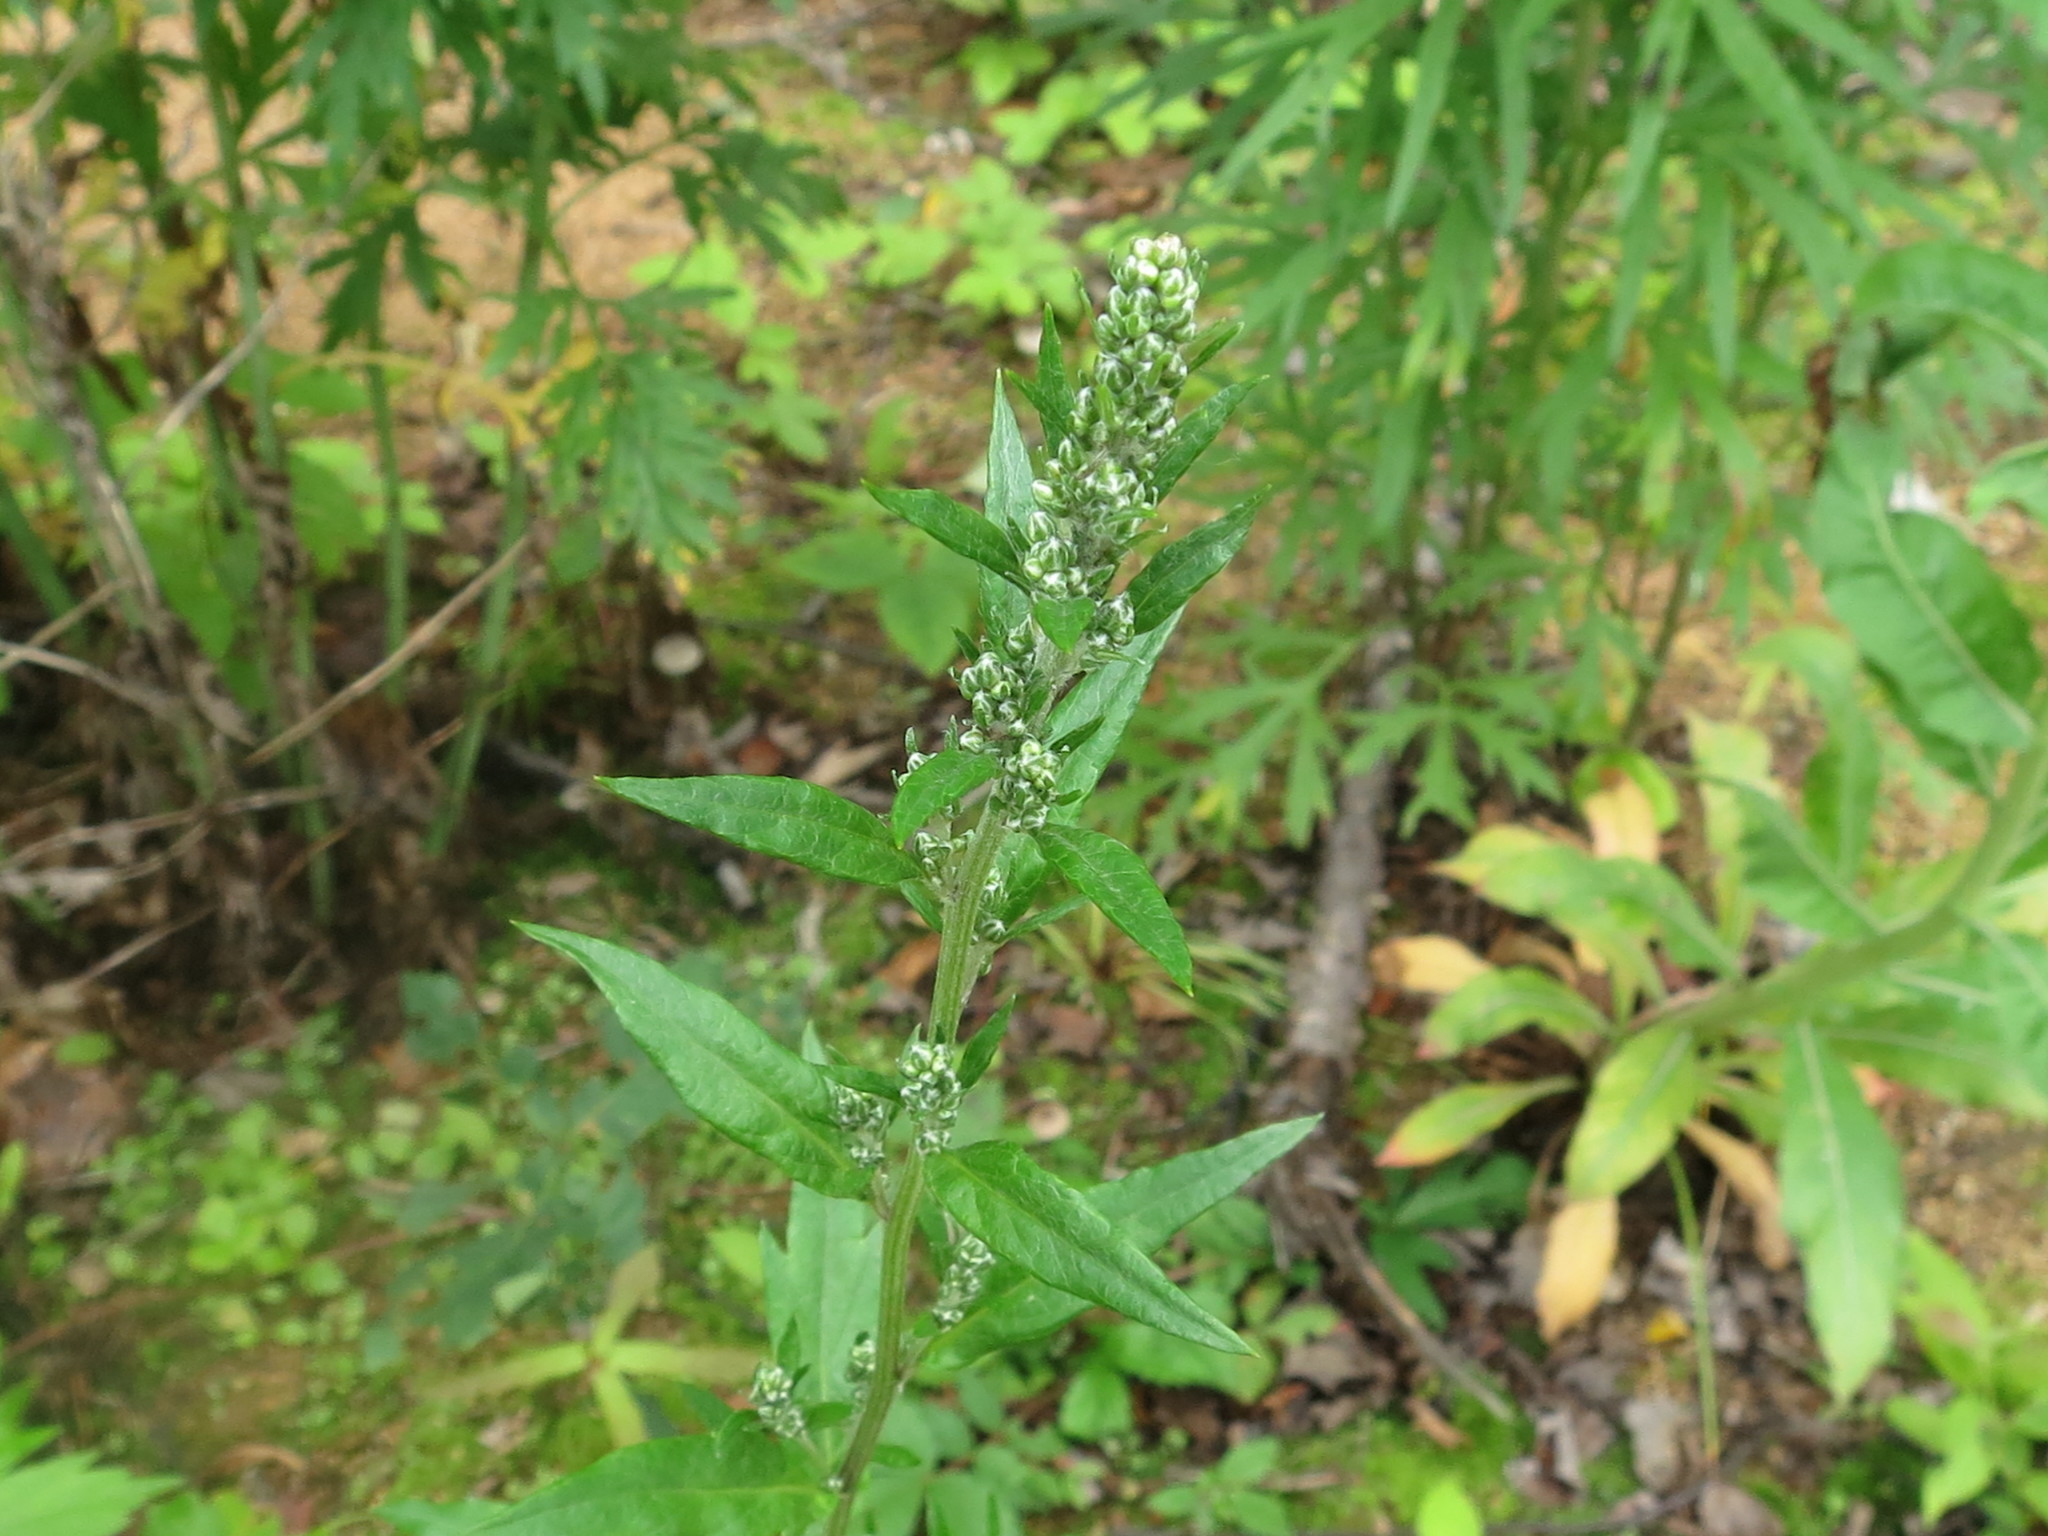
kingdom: Plantae
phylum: Tracheophyta
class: Magnoliopsida
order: Asterales
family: Asteraceae
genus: Artemisia
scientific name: Artemisia stolonifera
